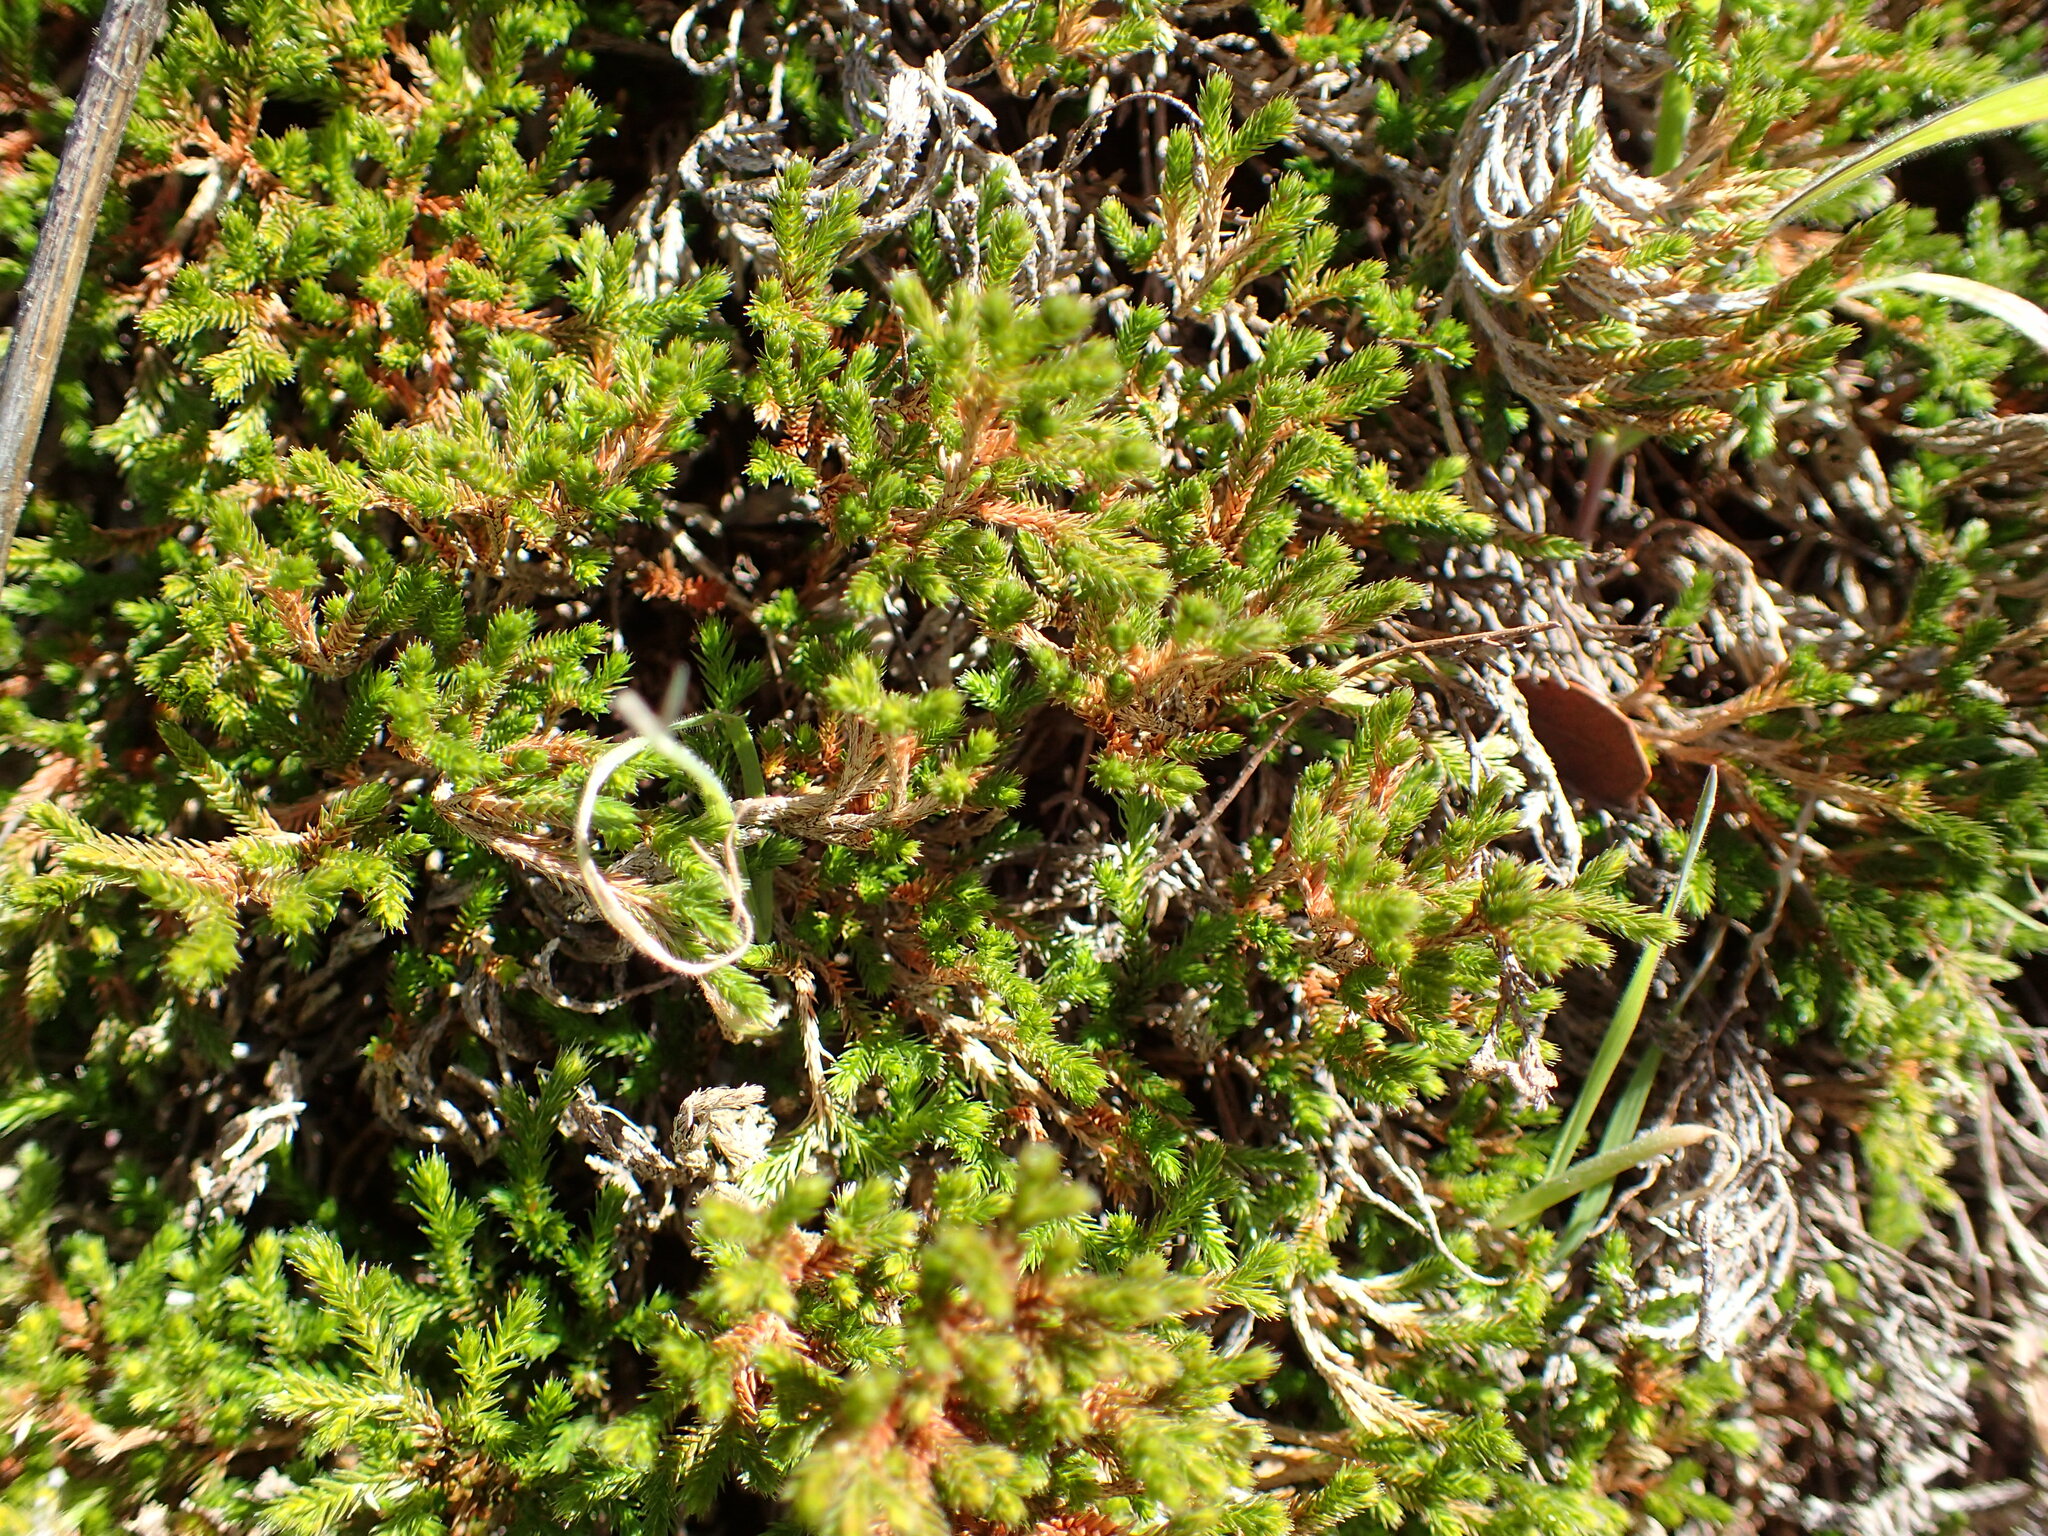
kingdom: Plantae
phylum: Tracheophyta
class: Lycopodiopsida
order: Selaginellales
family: Selaginellaceae
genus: Selaginella
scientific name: Selaginella bigelovii
